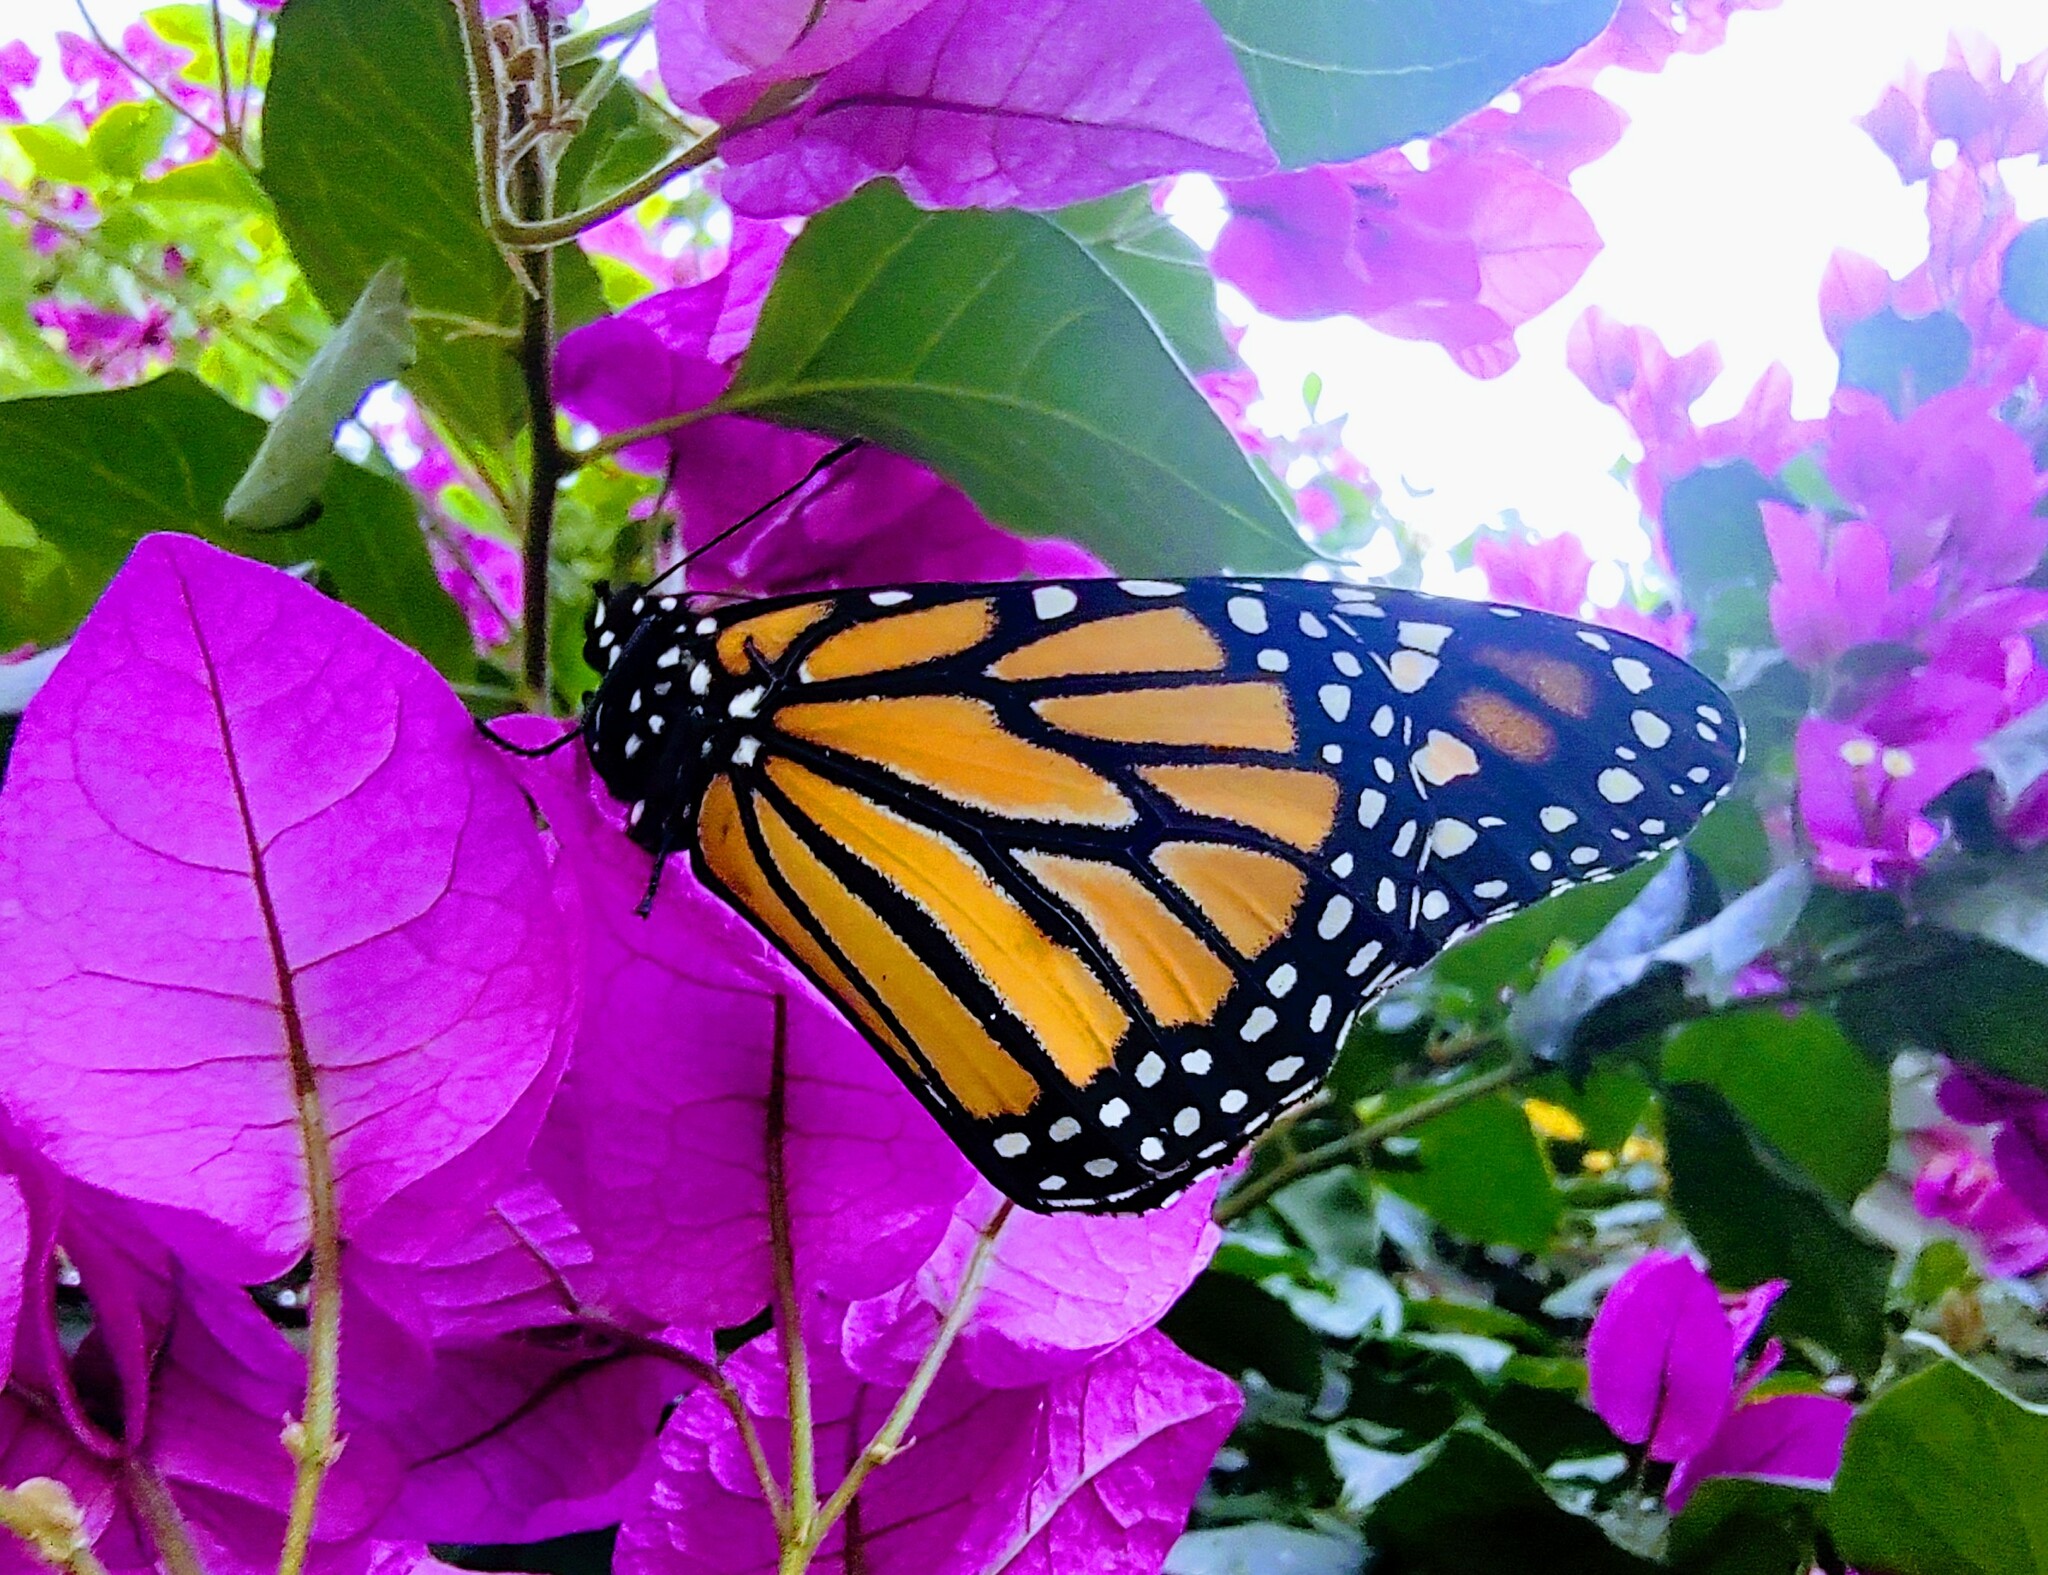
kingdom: Animalia
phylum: Arthropoda
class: Insecta
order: Lepidoptera
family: Nymphalidae
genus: Danaus
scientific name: Danaus plexippus
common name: Monarch
